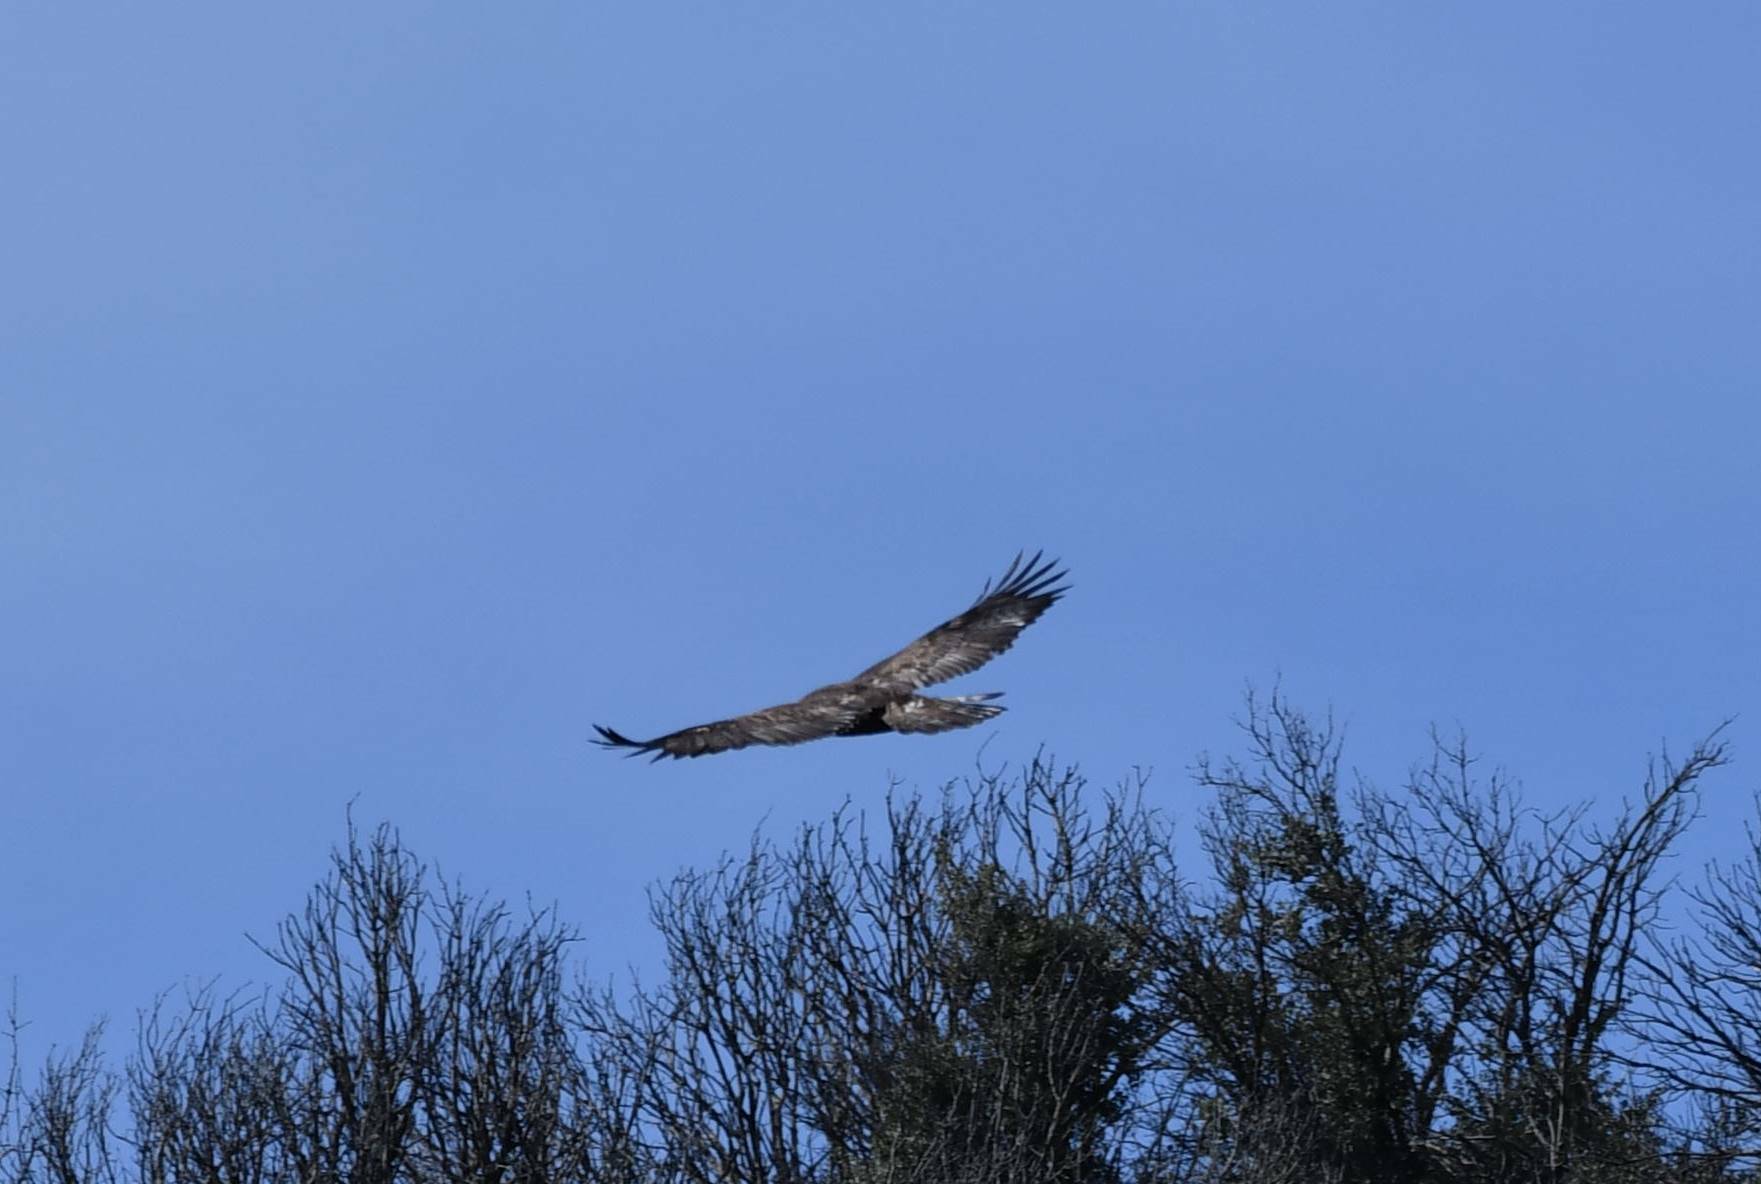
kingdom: Animalia
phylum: Chordata
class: Aves
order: Accipitriformes
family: Accipitridae
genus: Aquila
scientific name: Aquila chrysaetos
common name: Golden eagle
